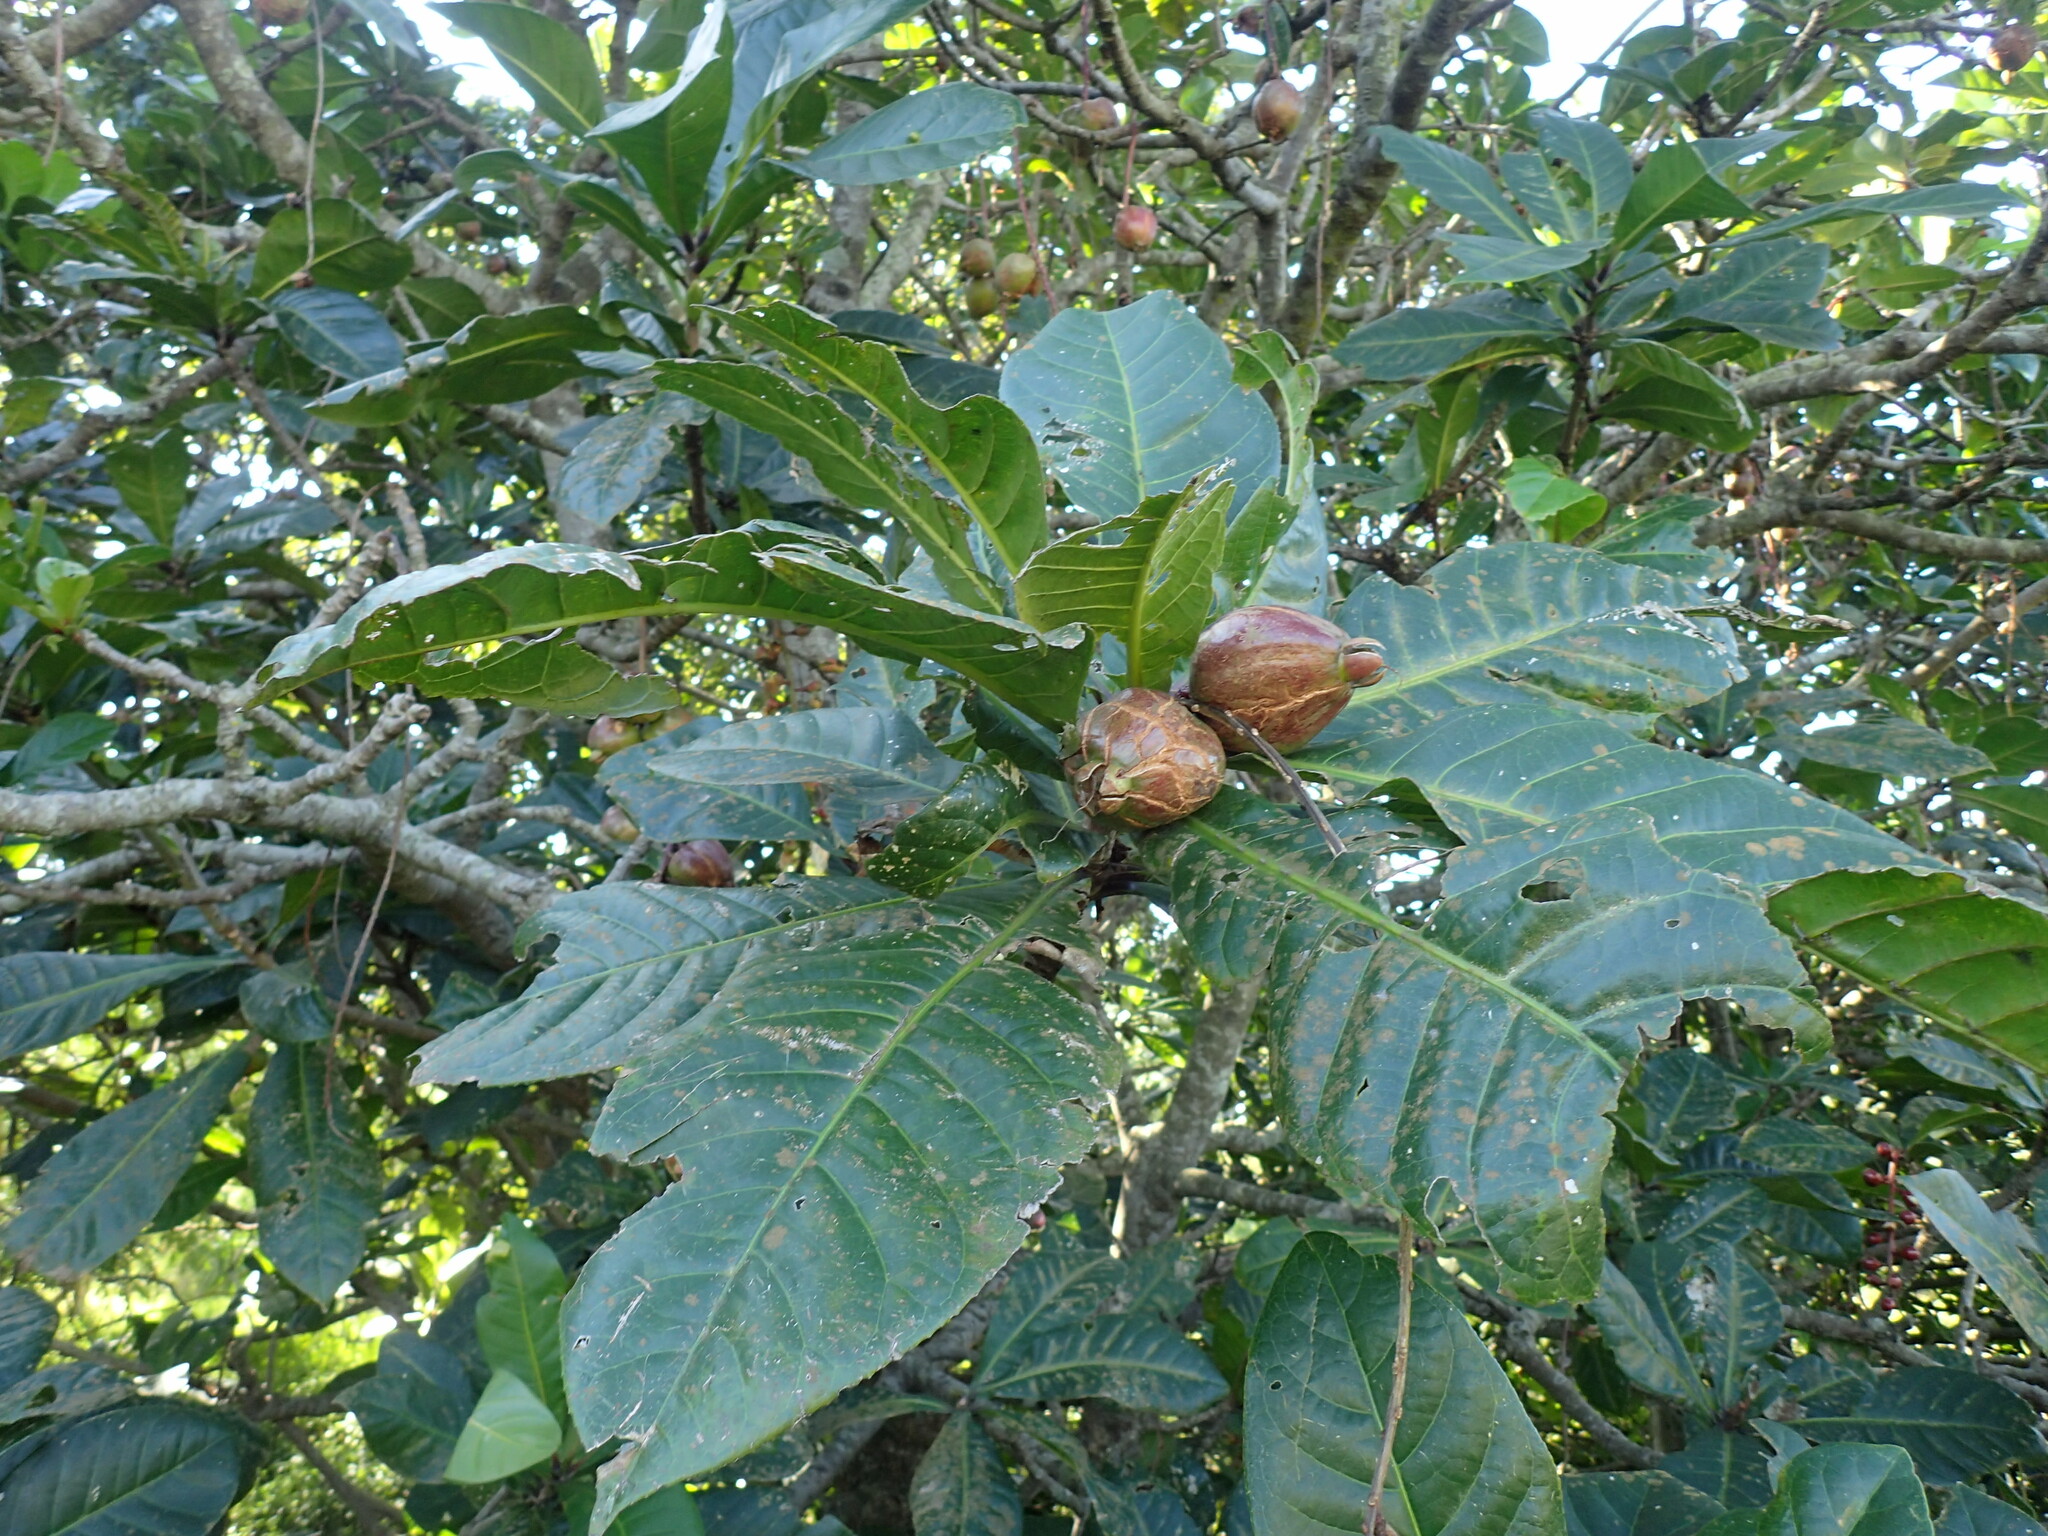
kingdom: Plantae
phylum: Tracheophyta
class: Magnoliopsida
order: Ericales
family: Lecythidaceae
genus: Barringtonia
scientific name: Barringtonia racemosa
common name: Brackwater mangrove
